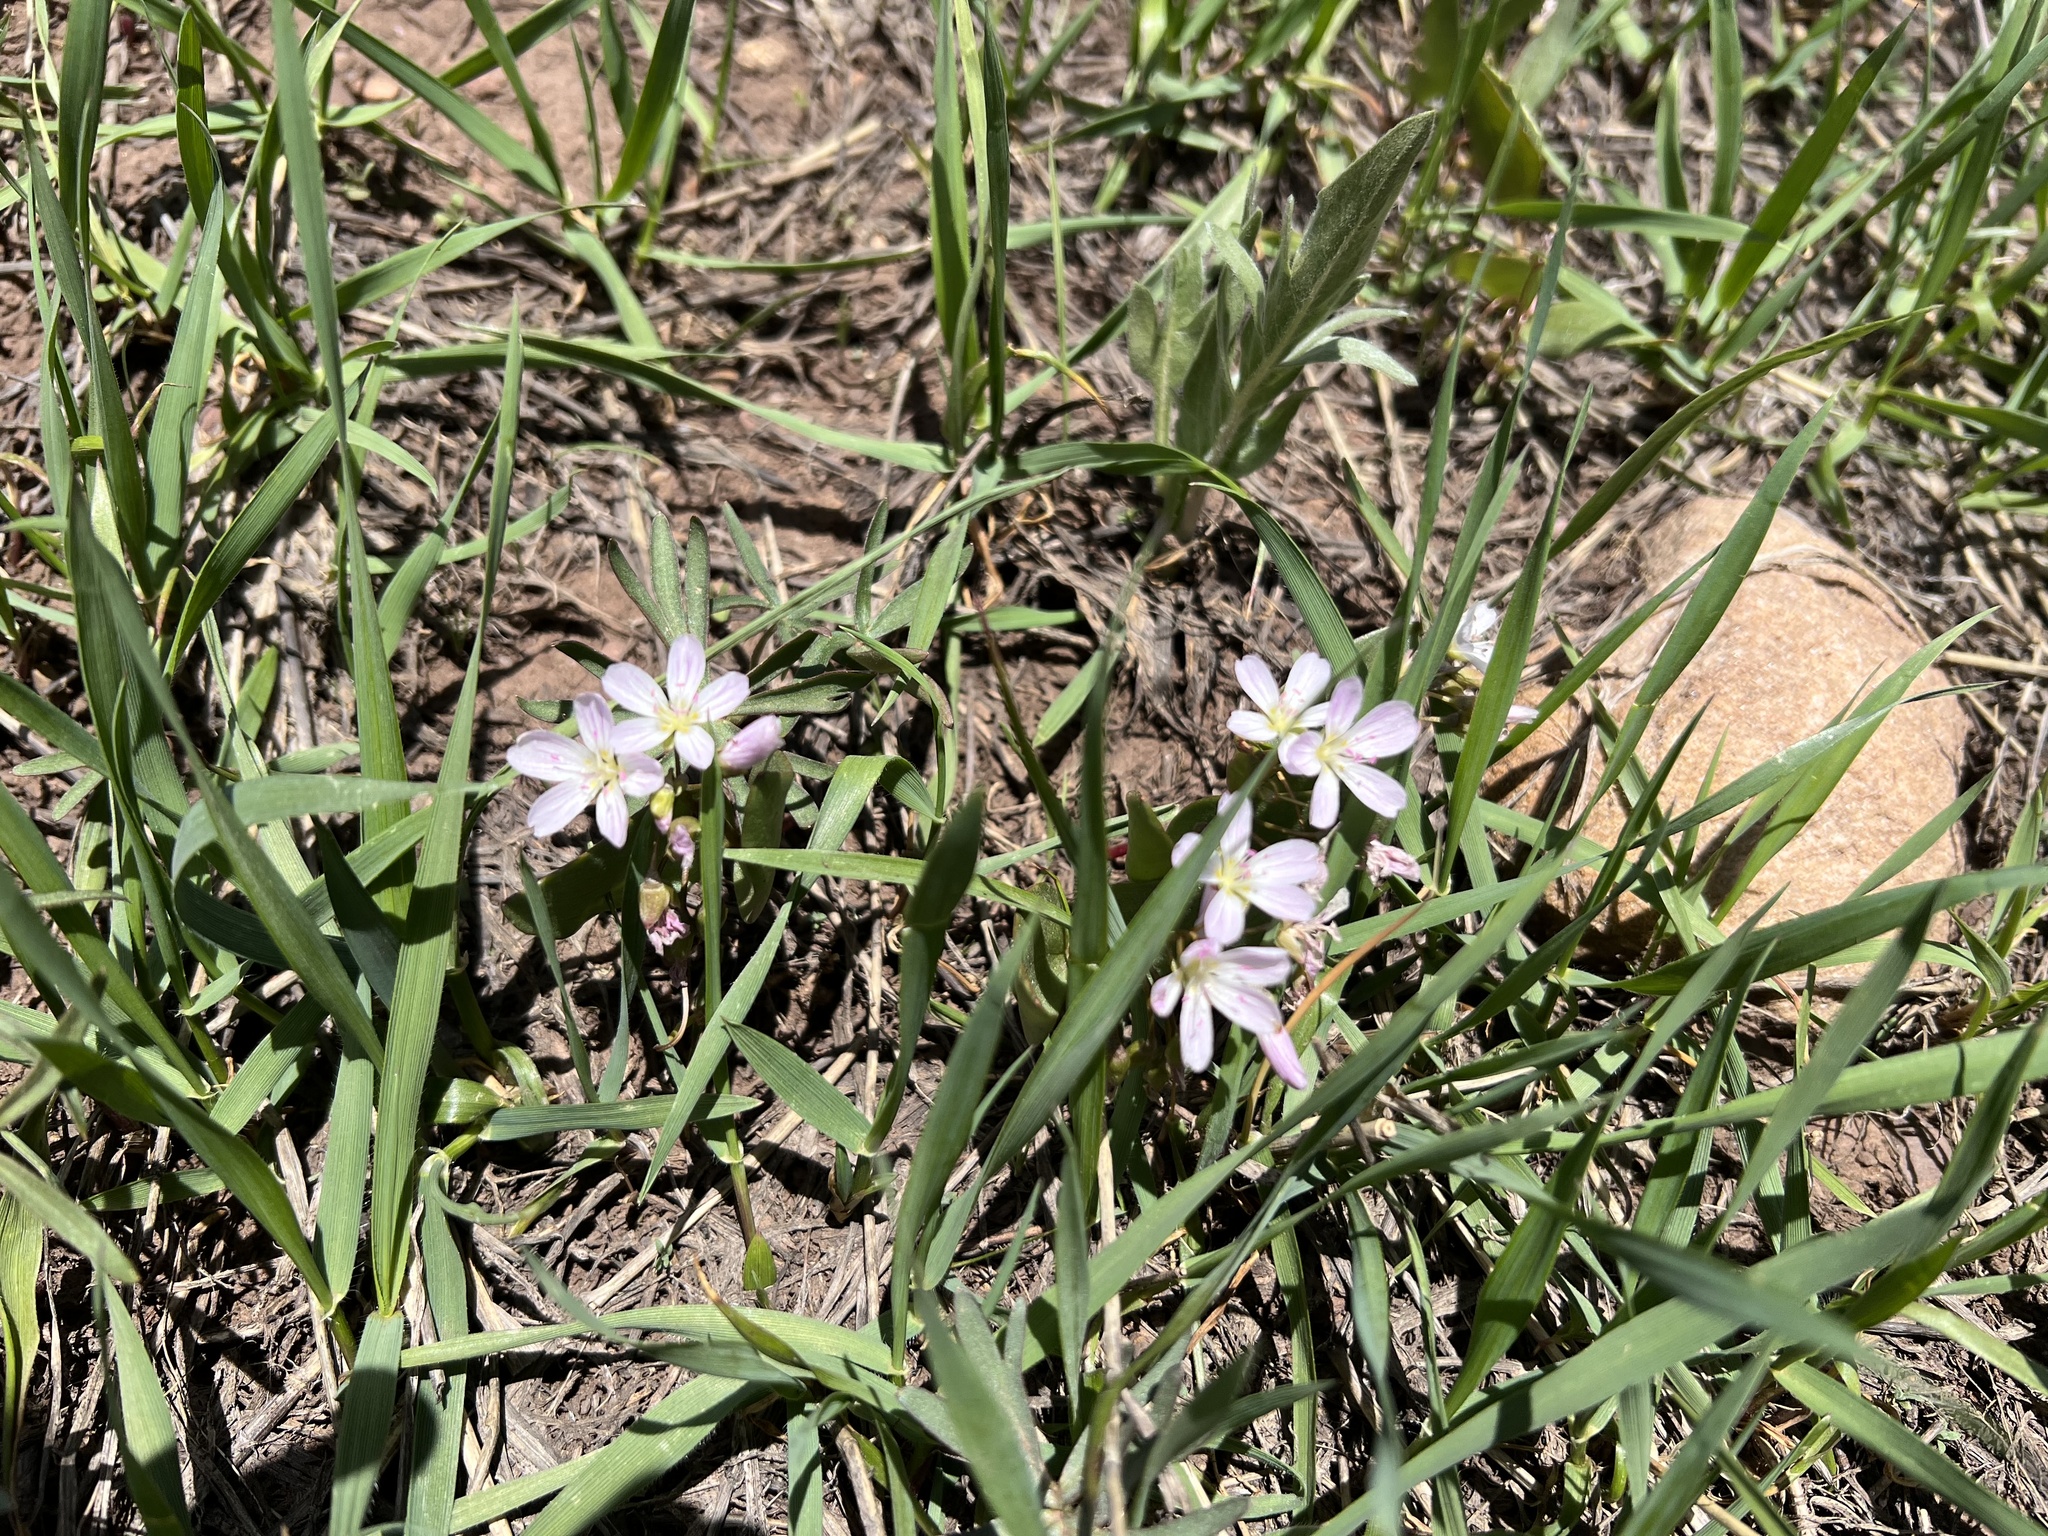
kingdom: Plantae
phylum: Tracheophyta
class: Magnoliopsida
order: Caryophyllales
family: Montiaceae
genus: Claytonia
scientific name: Claytonia lanceolata
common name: Western spring-beauty
